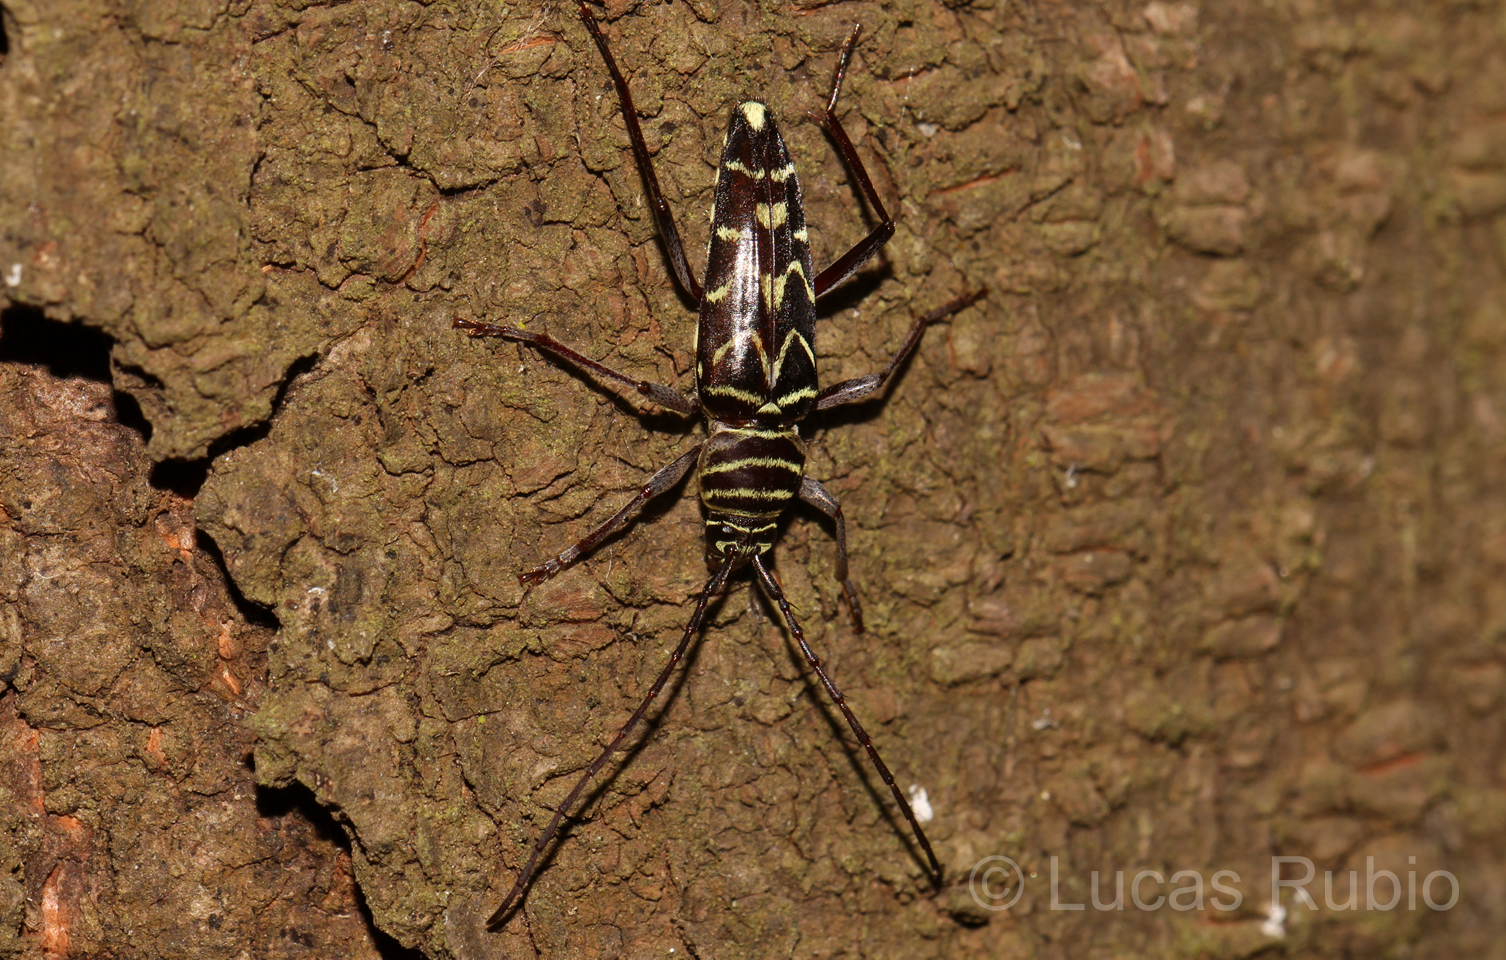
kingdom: Animalia
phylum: Arthropoda
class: Insecta
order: Coleoptera
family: Cerambycidae
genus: Megacyllene
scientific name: Megacyllene acuta
